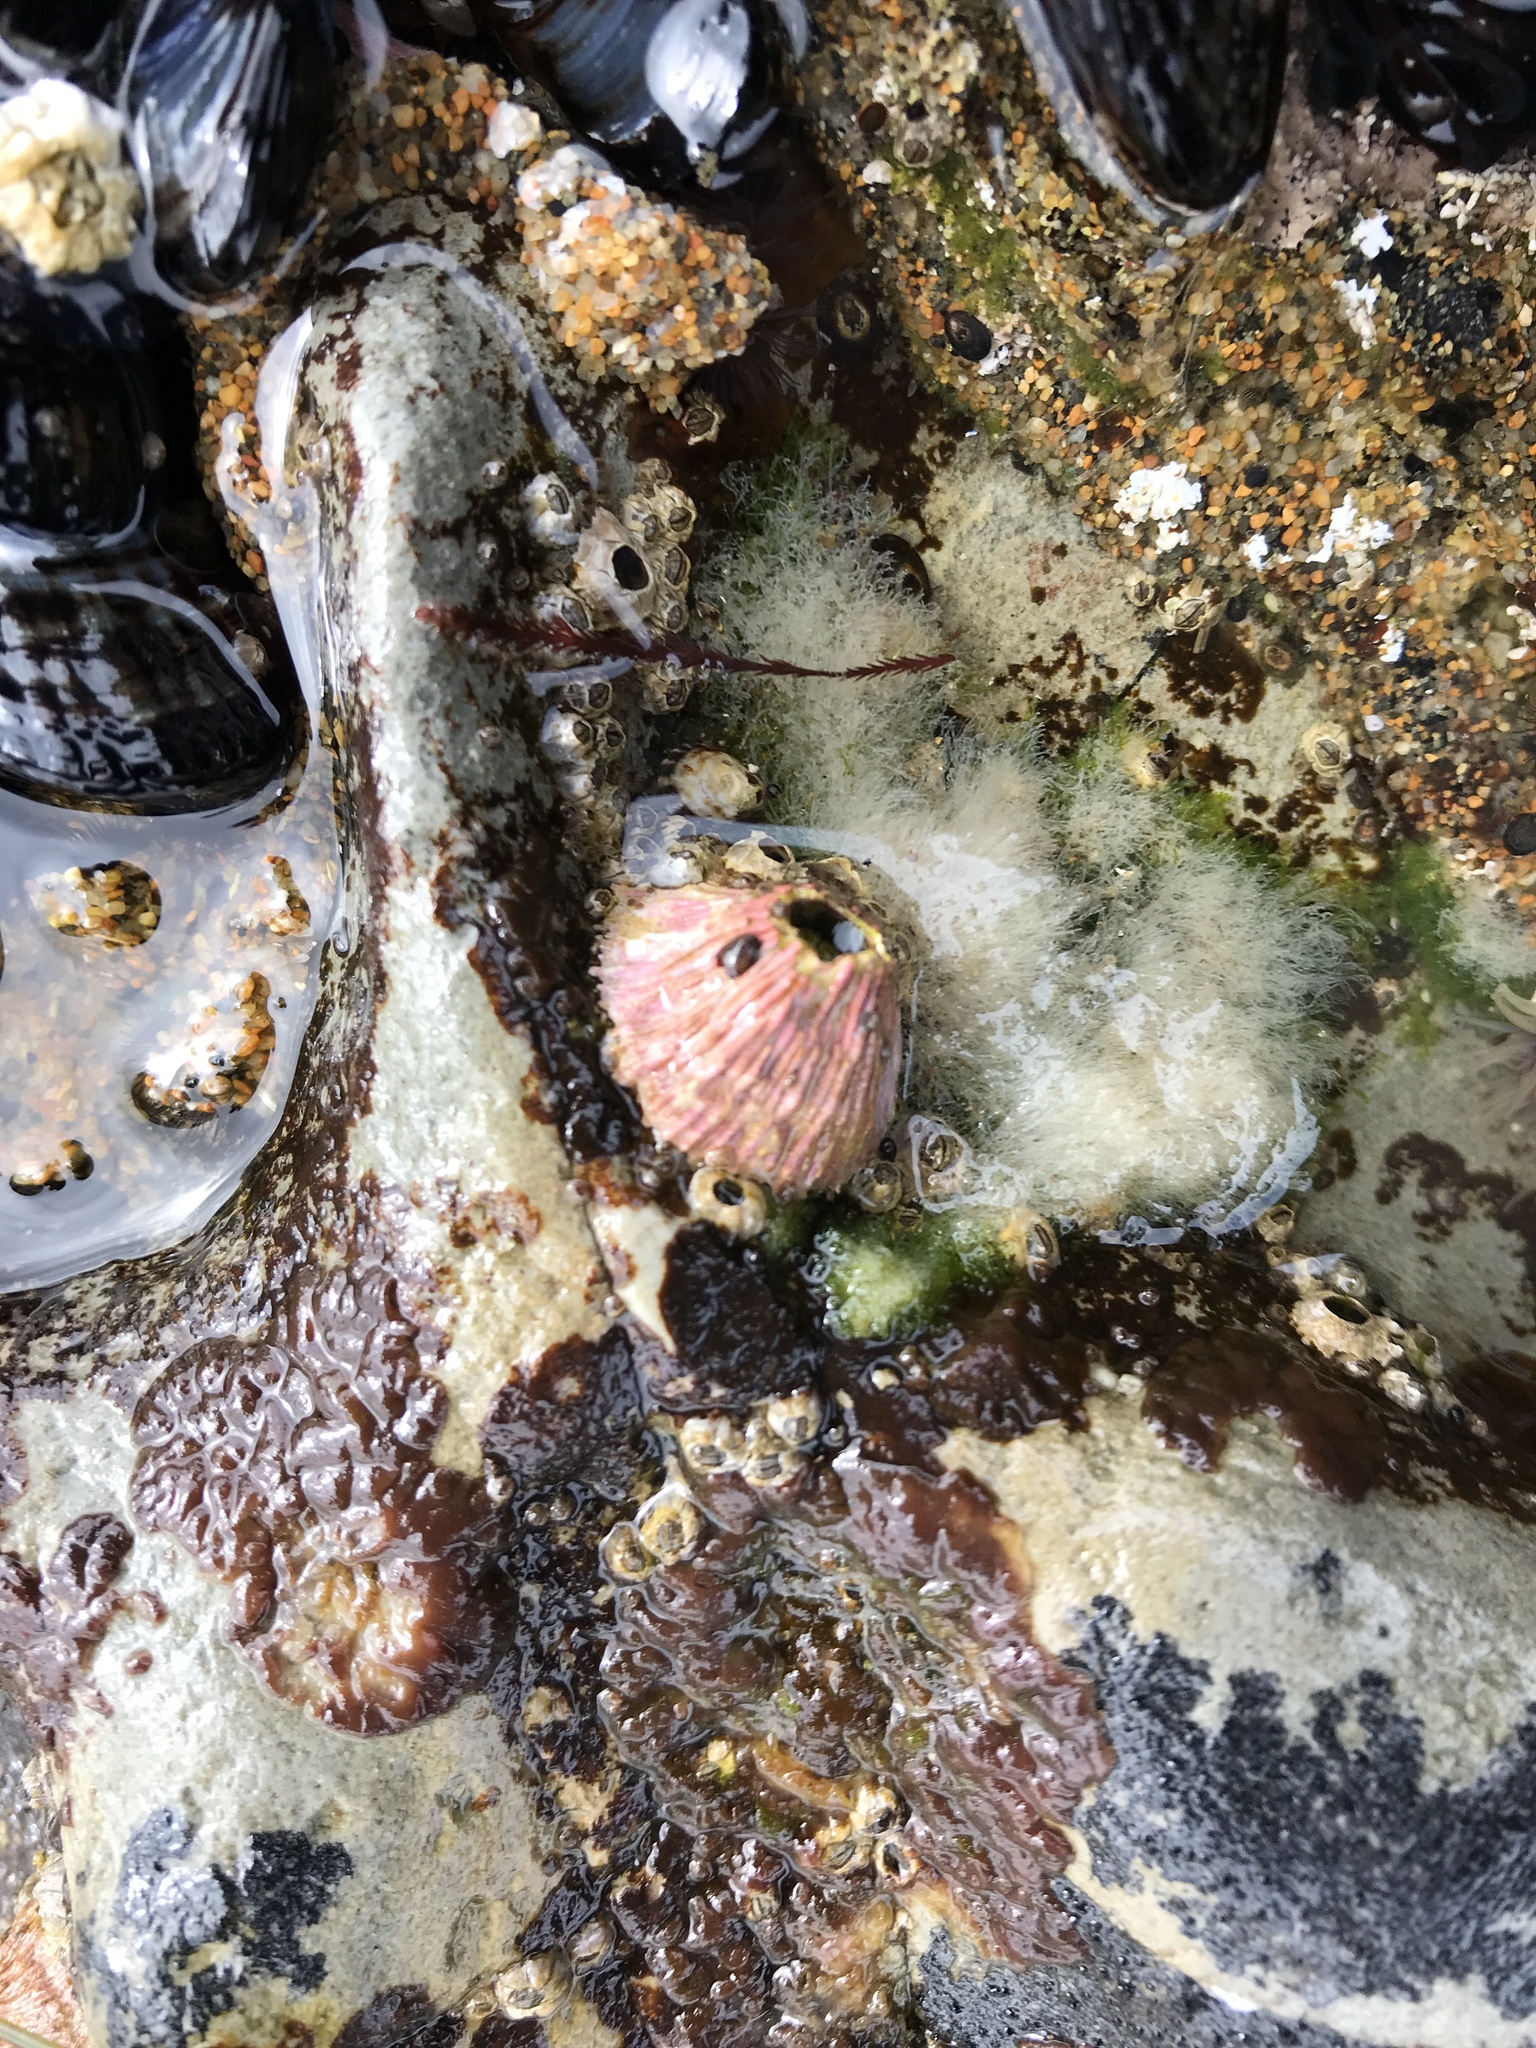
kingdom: Animalia
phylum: Arthropoda
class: Maxillopoda
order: Sessilia
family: Tetraclitidae
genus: Tetraclita
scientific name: Tetraclita rubescens
